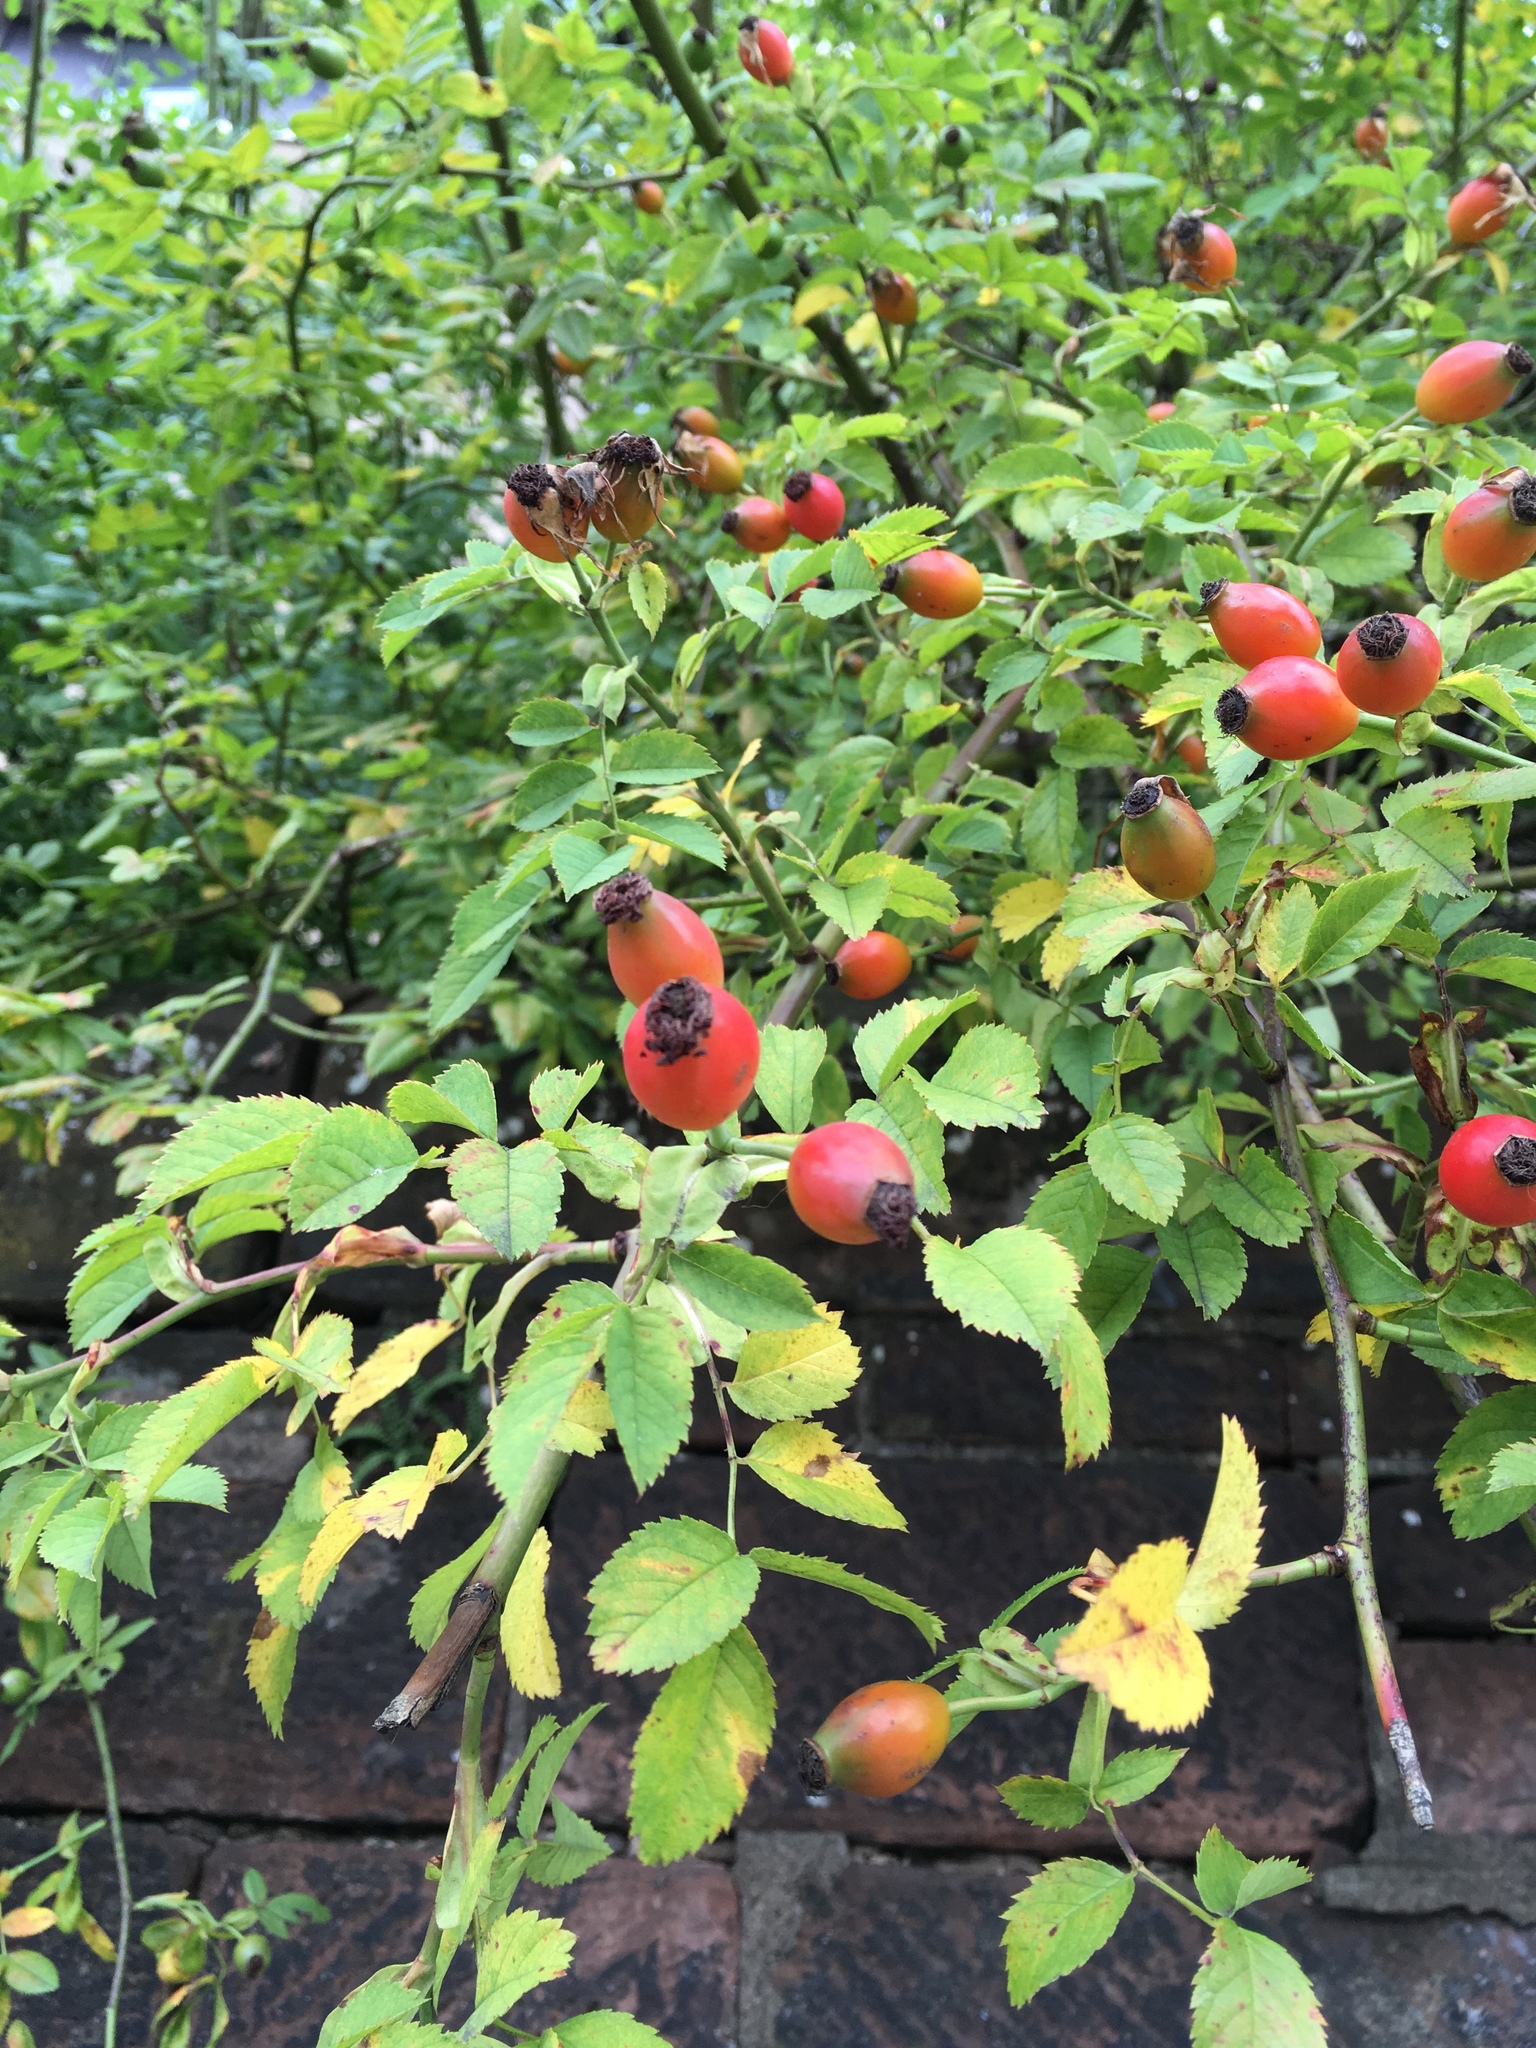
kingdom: Plantae
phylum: Tracheophyta
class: Magnoliopsida
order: Rosales
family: Rosaceae
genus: Rosa
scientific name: Rosa canina
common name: Dog rose
